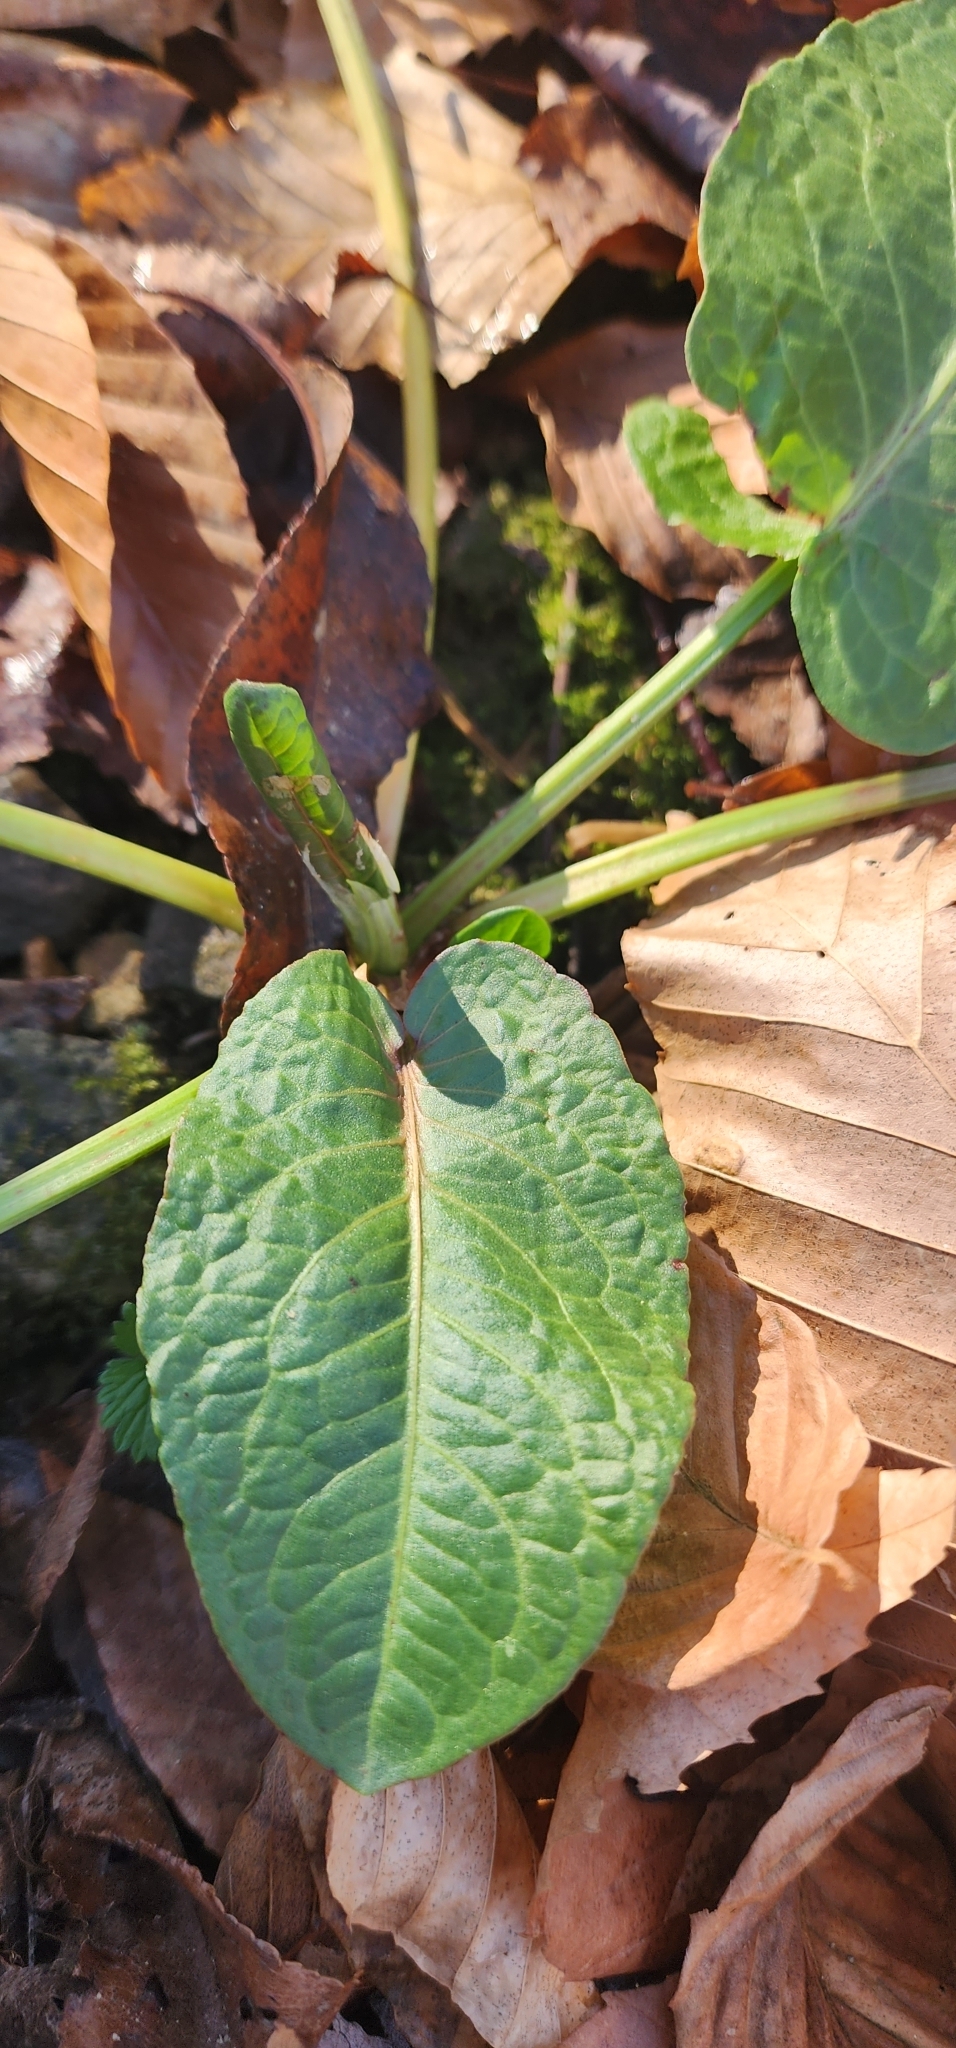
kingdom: Plantae
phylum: Tracheophyta
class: Magnoliopsida
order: Caryophyllales
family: Polygonaceae
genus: Rumex
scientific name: Rumex obtusifolius
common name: Bitter dock
